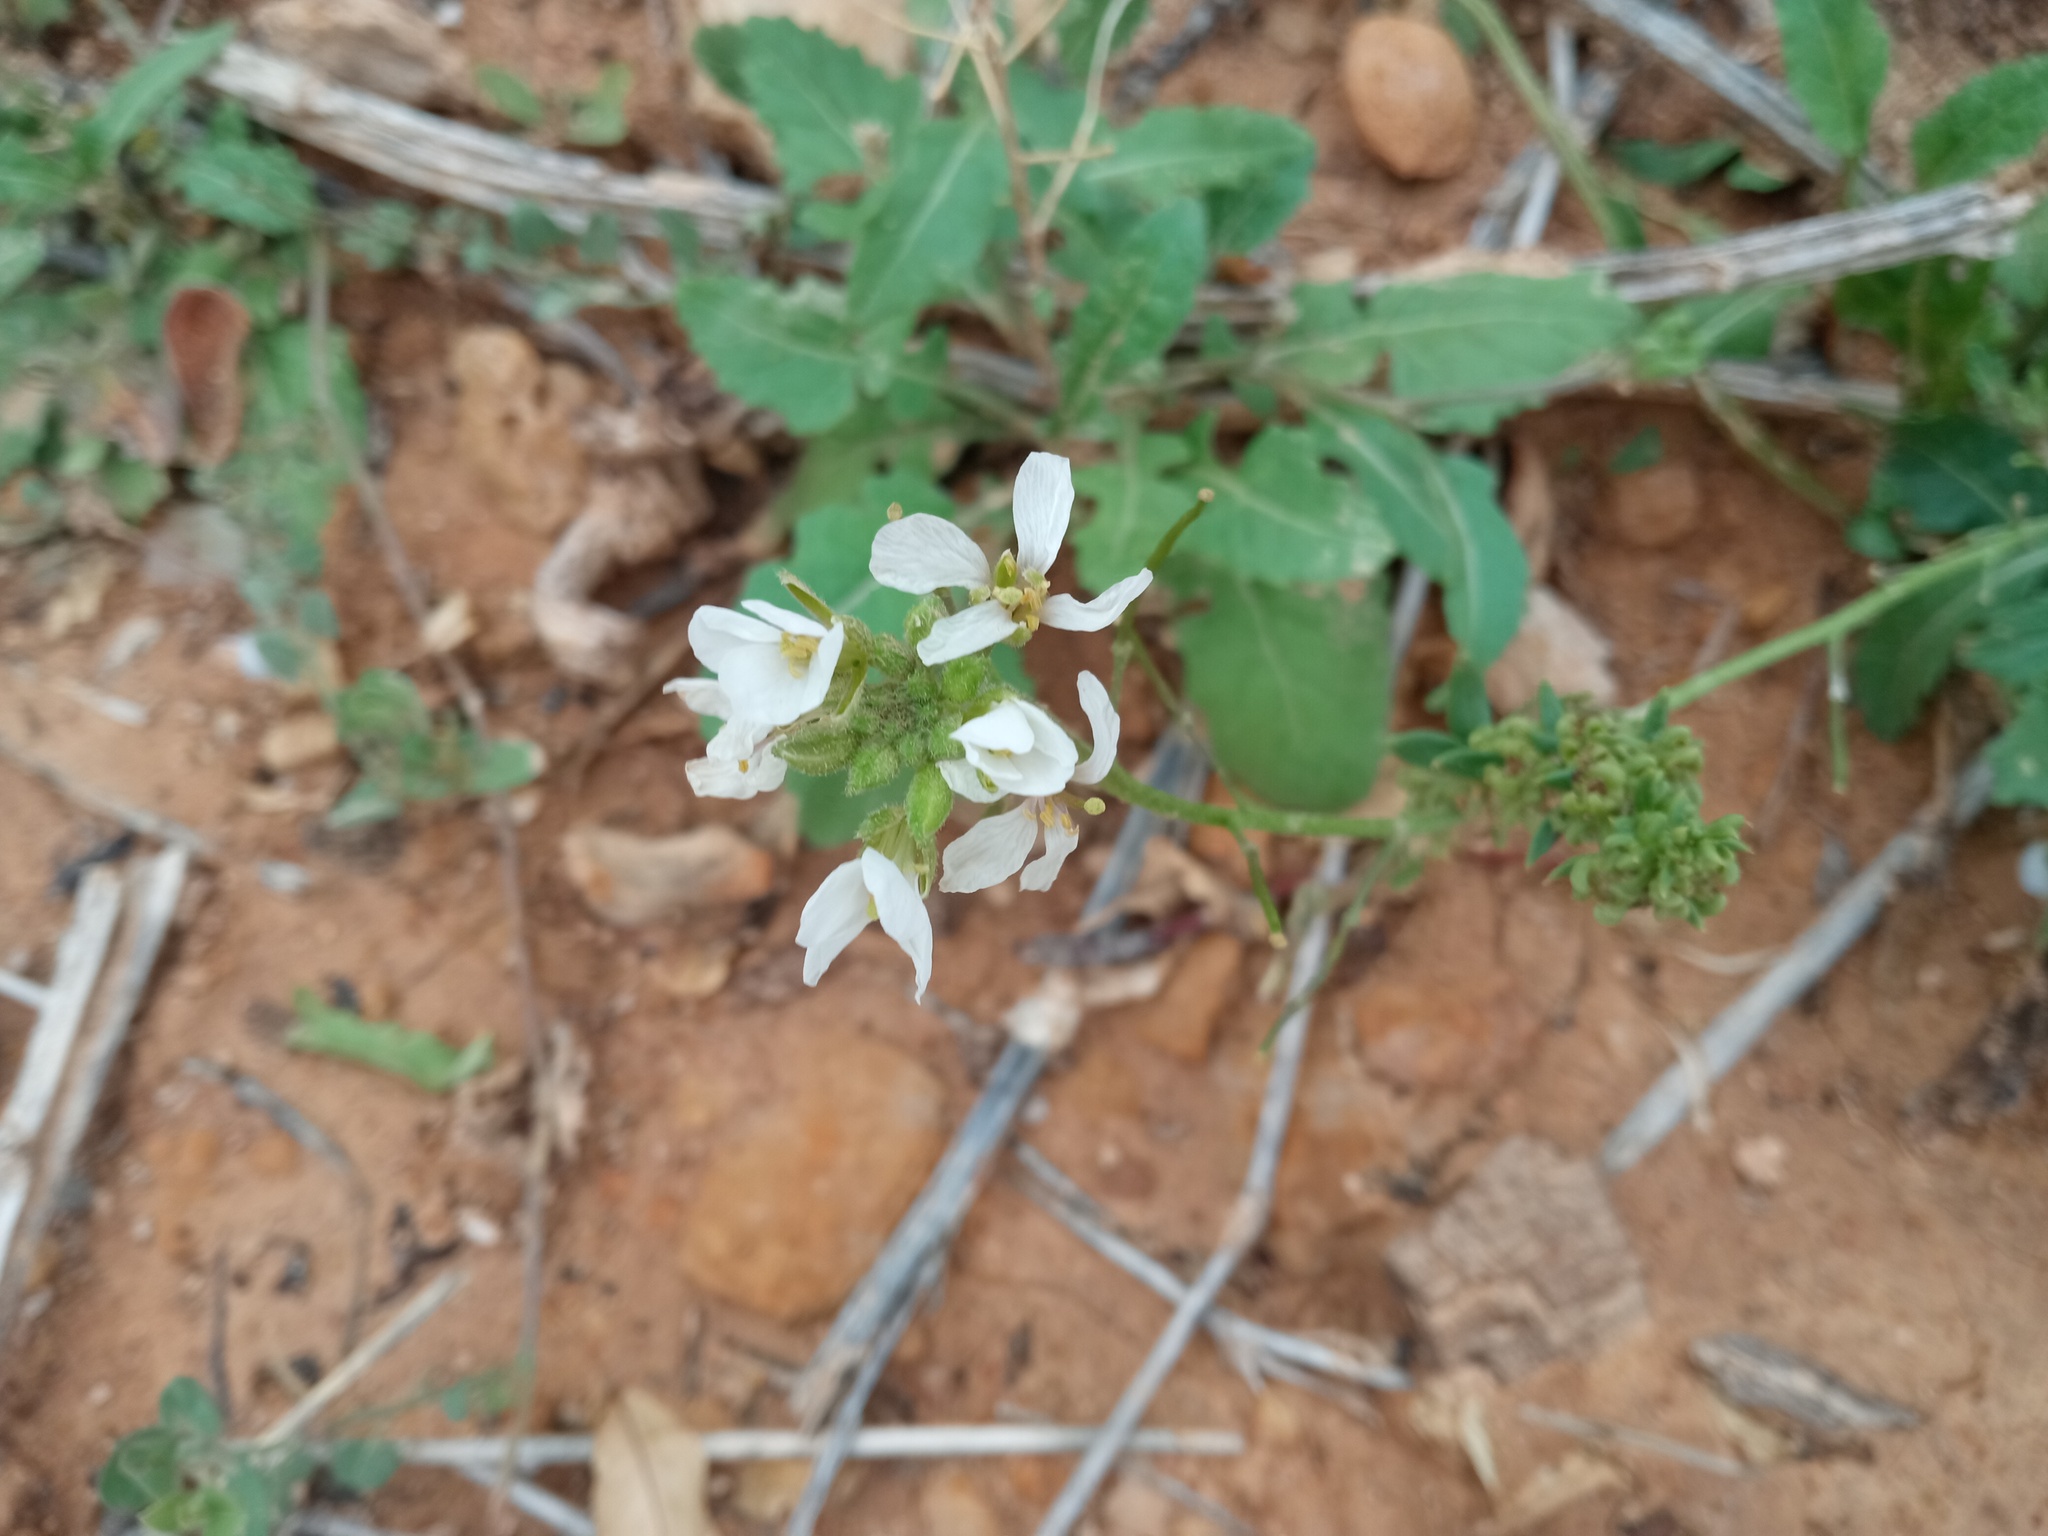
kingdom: Plantae
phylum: Tracheophyta
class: Magnoliopsida
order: Brassicales
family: Brassicaceae
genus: Diplotaxis
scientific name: Diplotaxis erucoides
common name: White rocket
